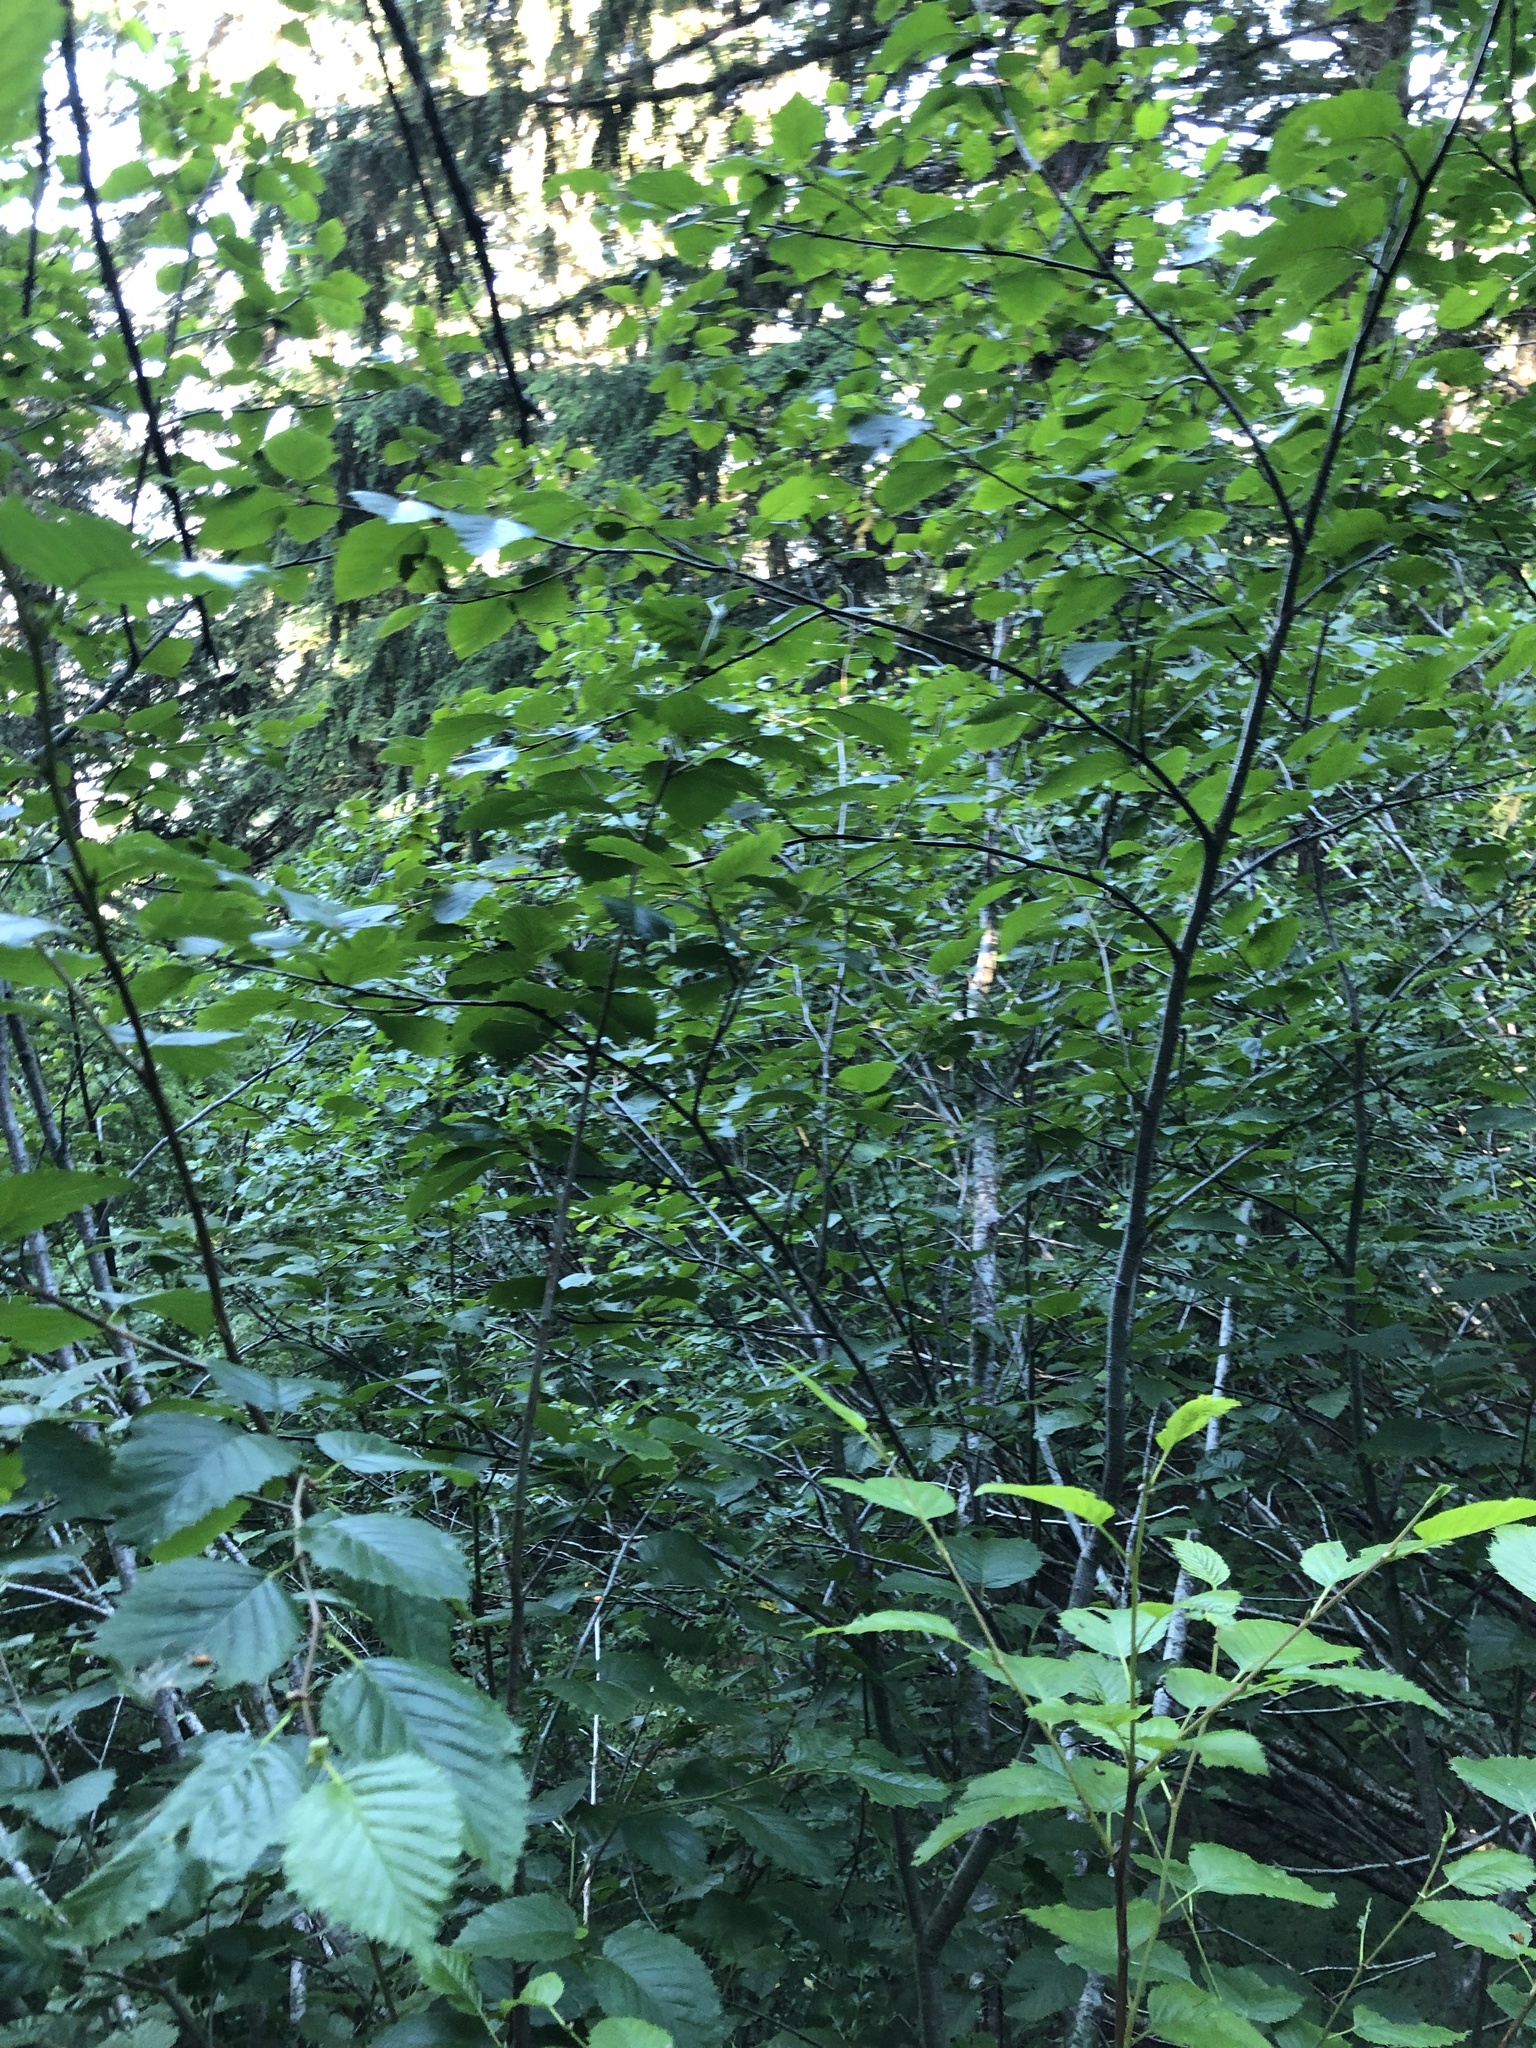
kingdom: Plantae
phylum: Tracheophyta
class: Magnoliopsida
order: Fagales
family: Betulaceae
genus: Alnus
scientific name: Alnus alnobetula
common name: Green alder
